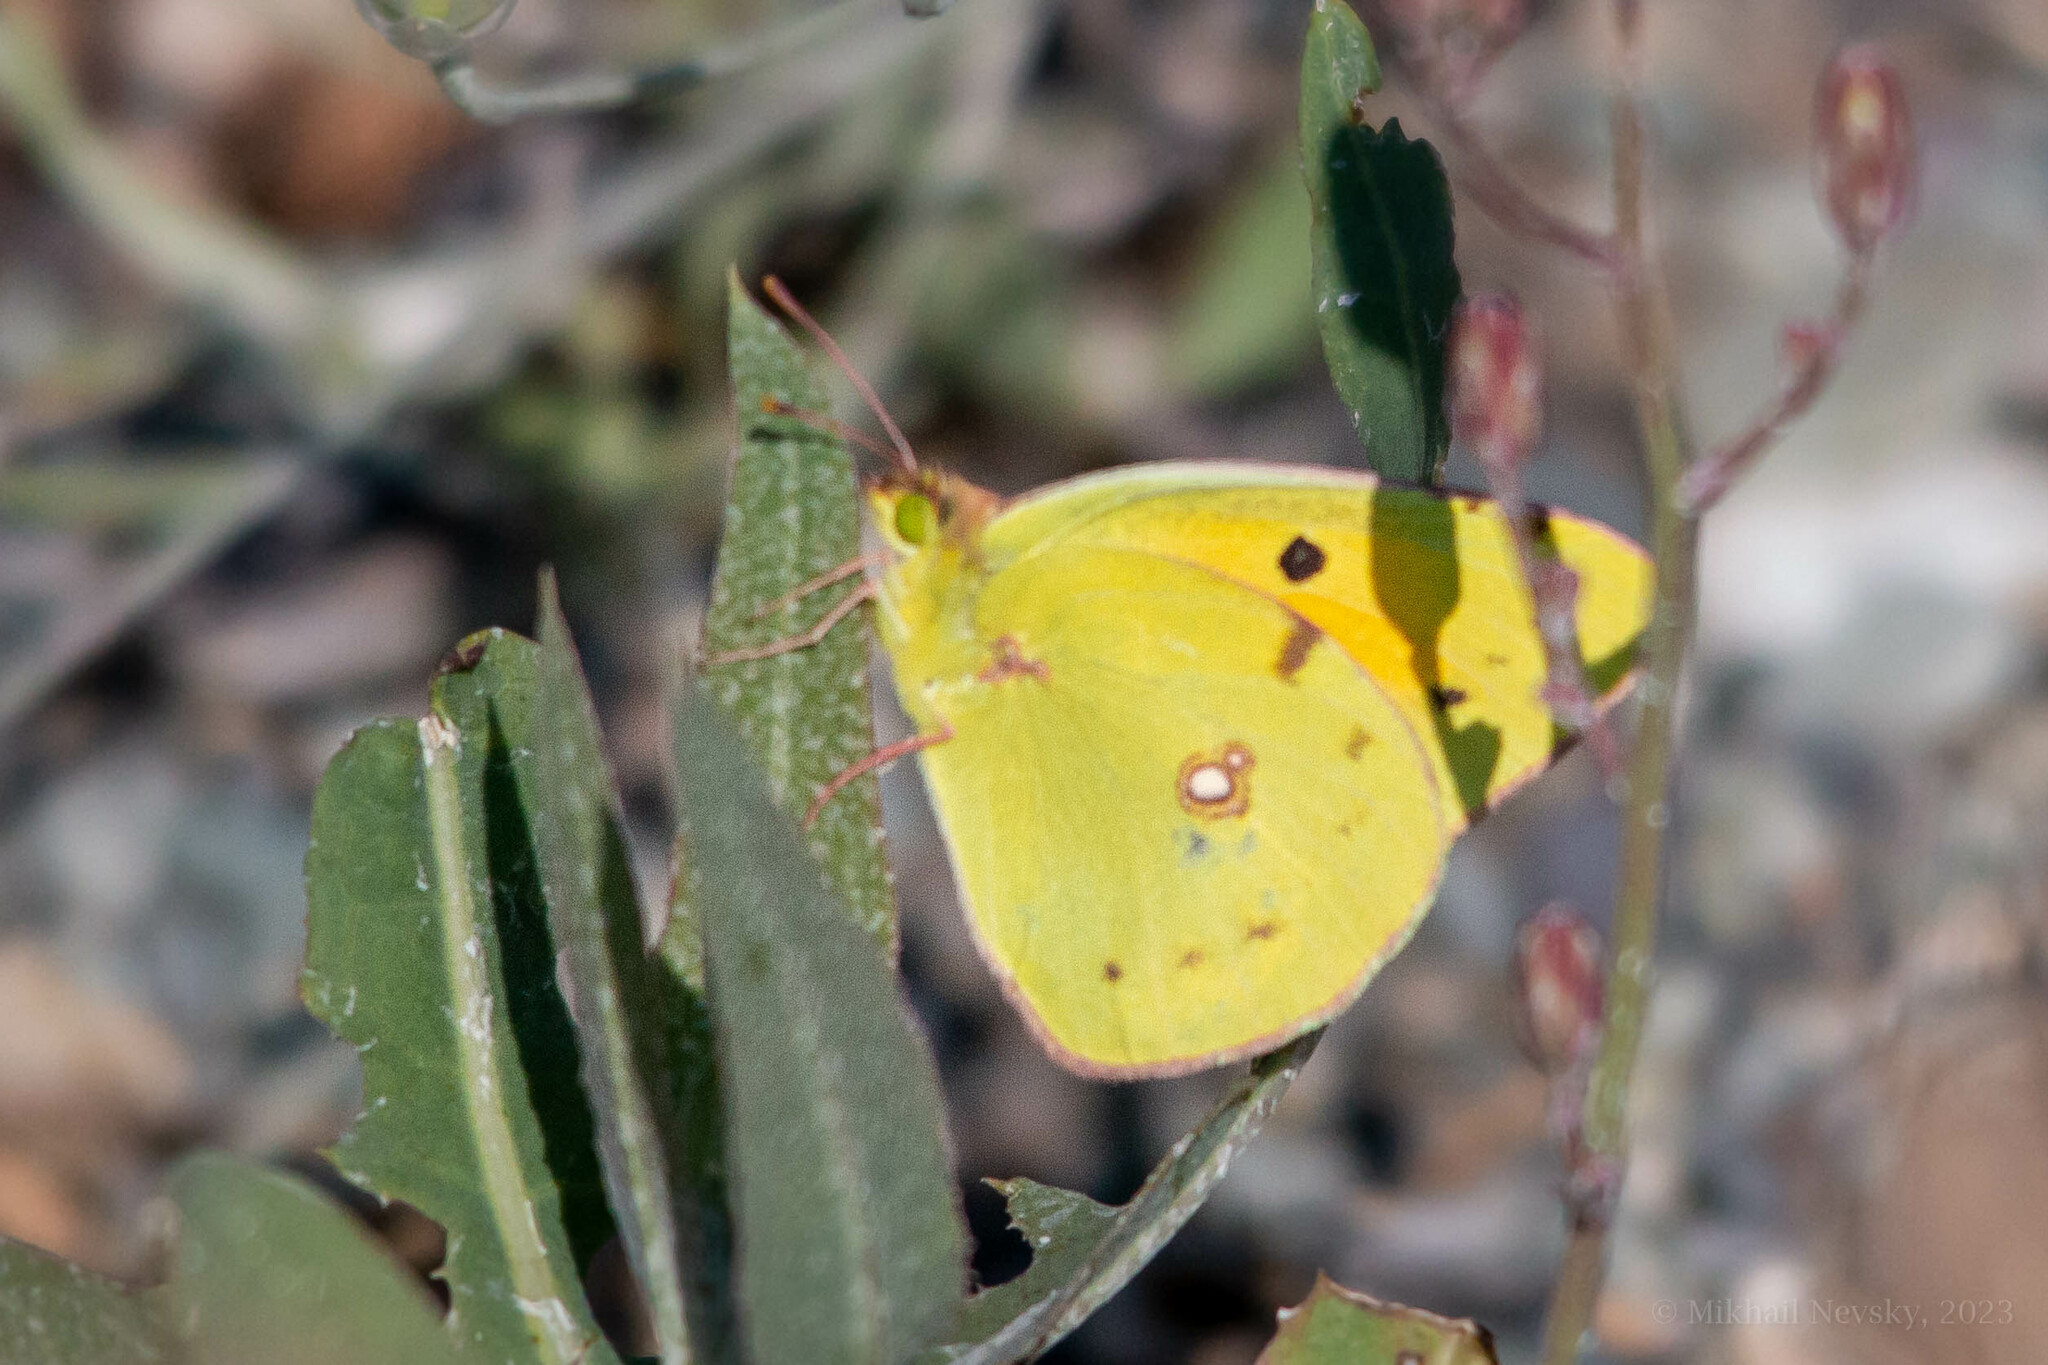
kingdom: Animalia
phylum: Arthropoda
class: Insecta
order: Lepidoptera
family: Pieridae
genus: Colias
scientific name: Colias croceus
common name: Clouded yellow
